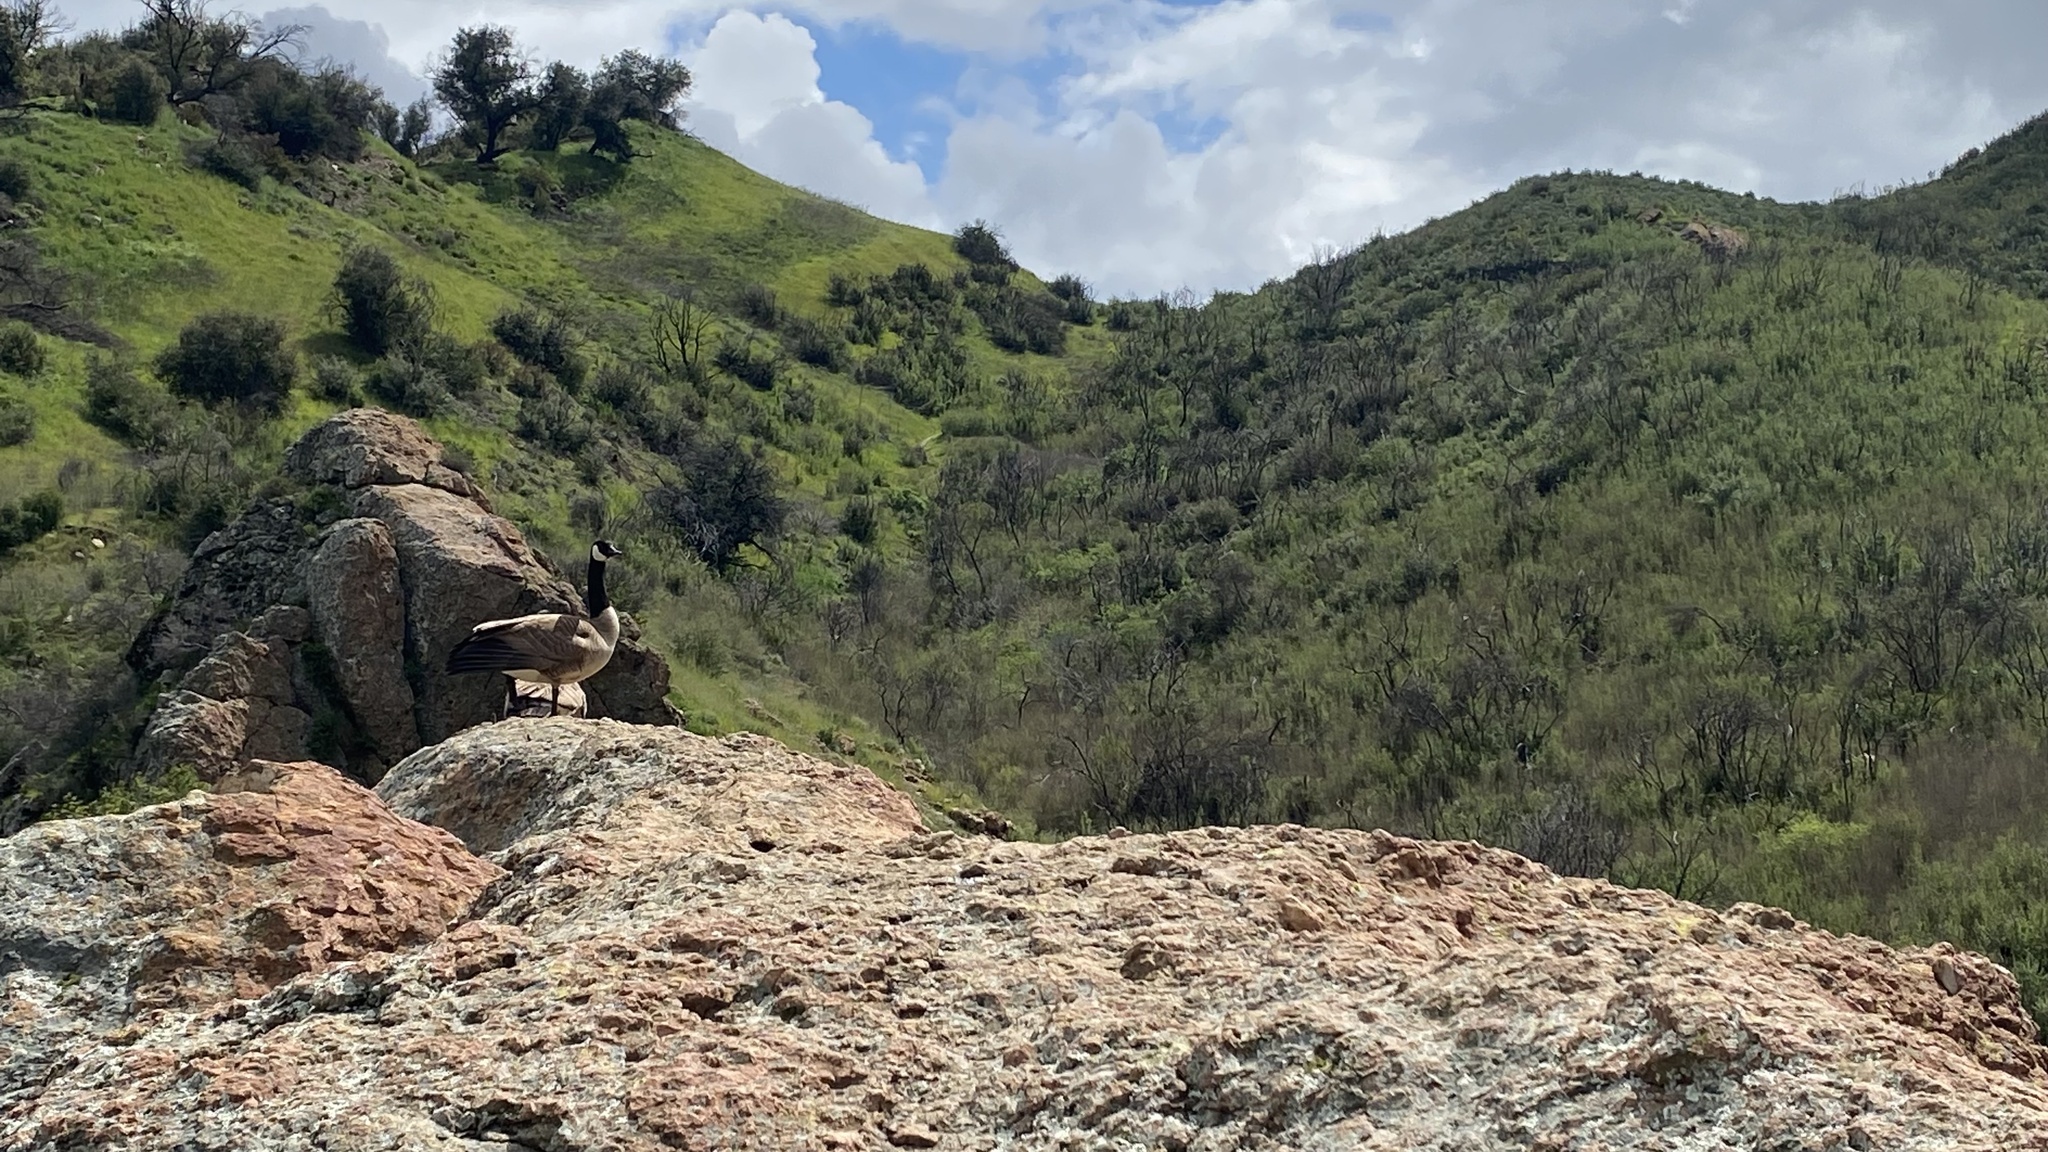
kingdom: Animalia
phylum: Chordata
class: Aves
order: Anseriformes
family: Anatidae
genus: Branta
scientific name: Branta canadensis
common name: Canada goose
